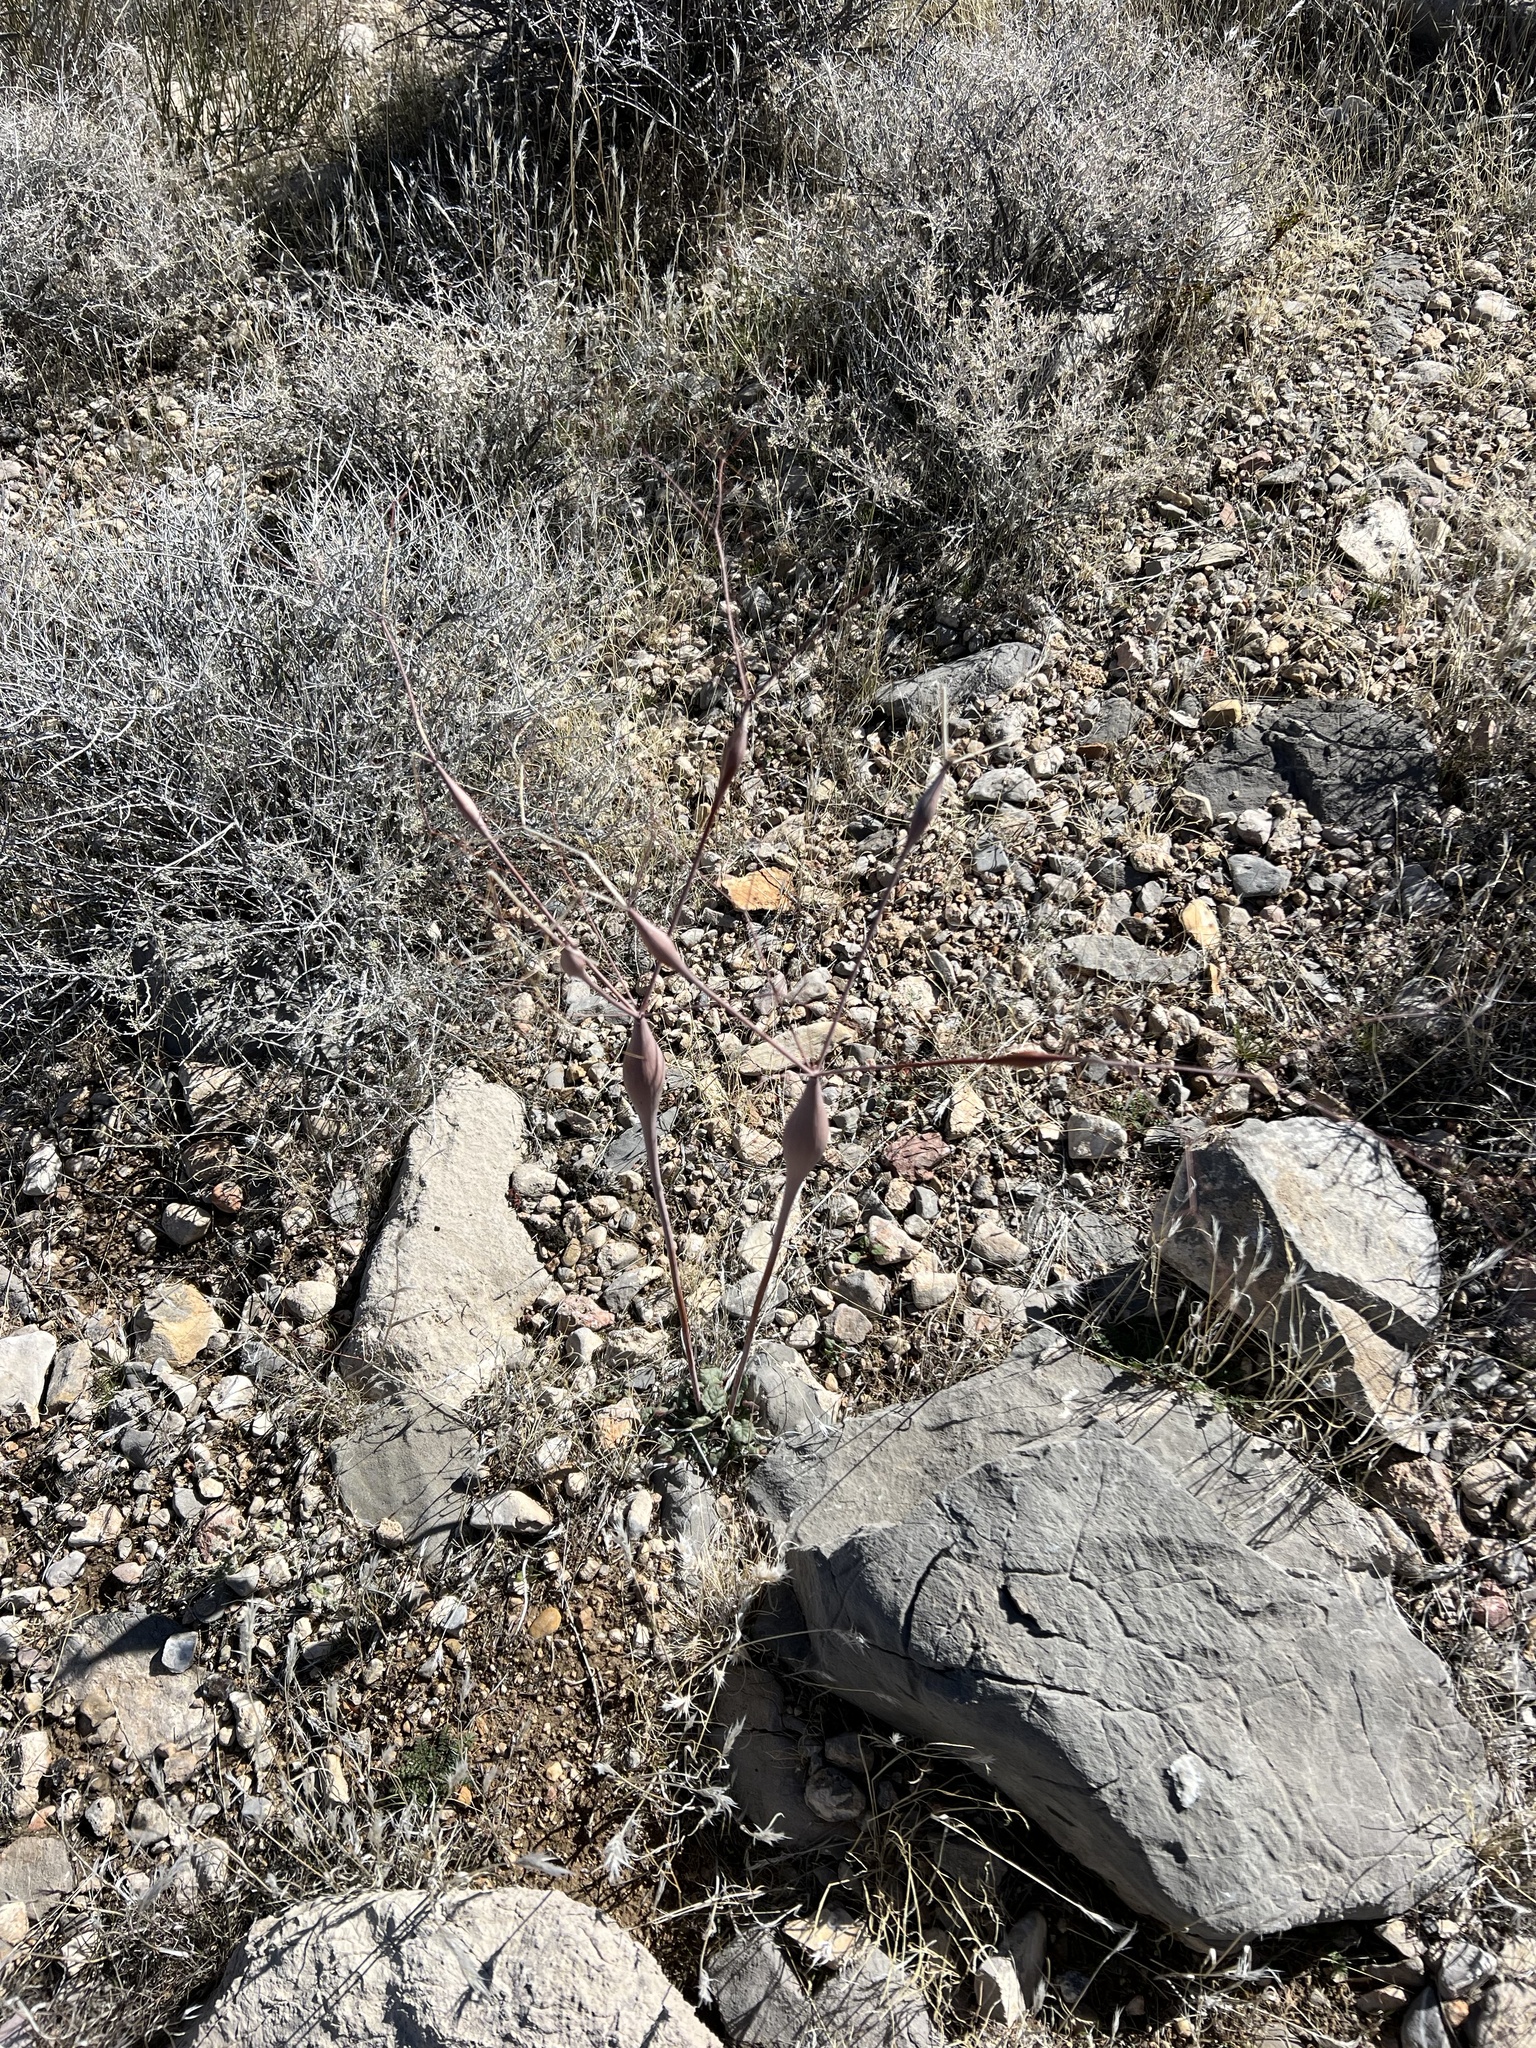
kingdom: Plantae
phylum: Tracheophyta
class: Magnoliopsida
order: Caryophyllales
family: Polygonaceae
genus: Eriogonum
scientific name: Eriogonum inflatum
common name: Desert trumpet
